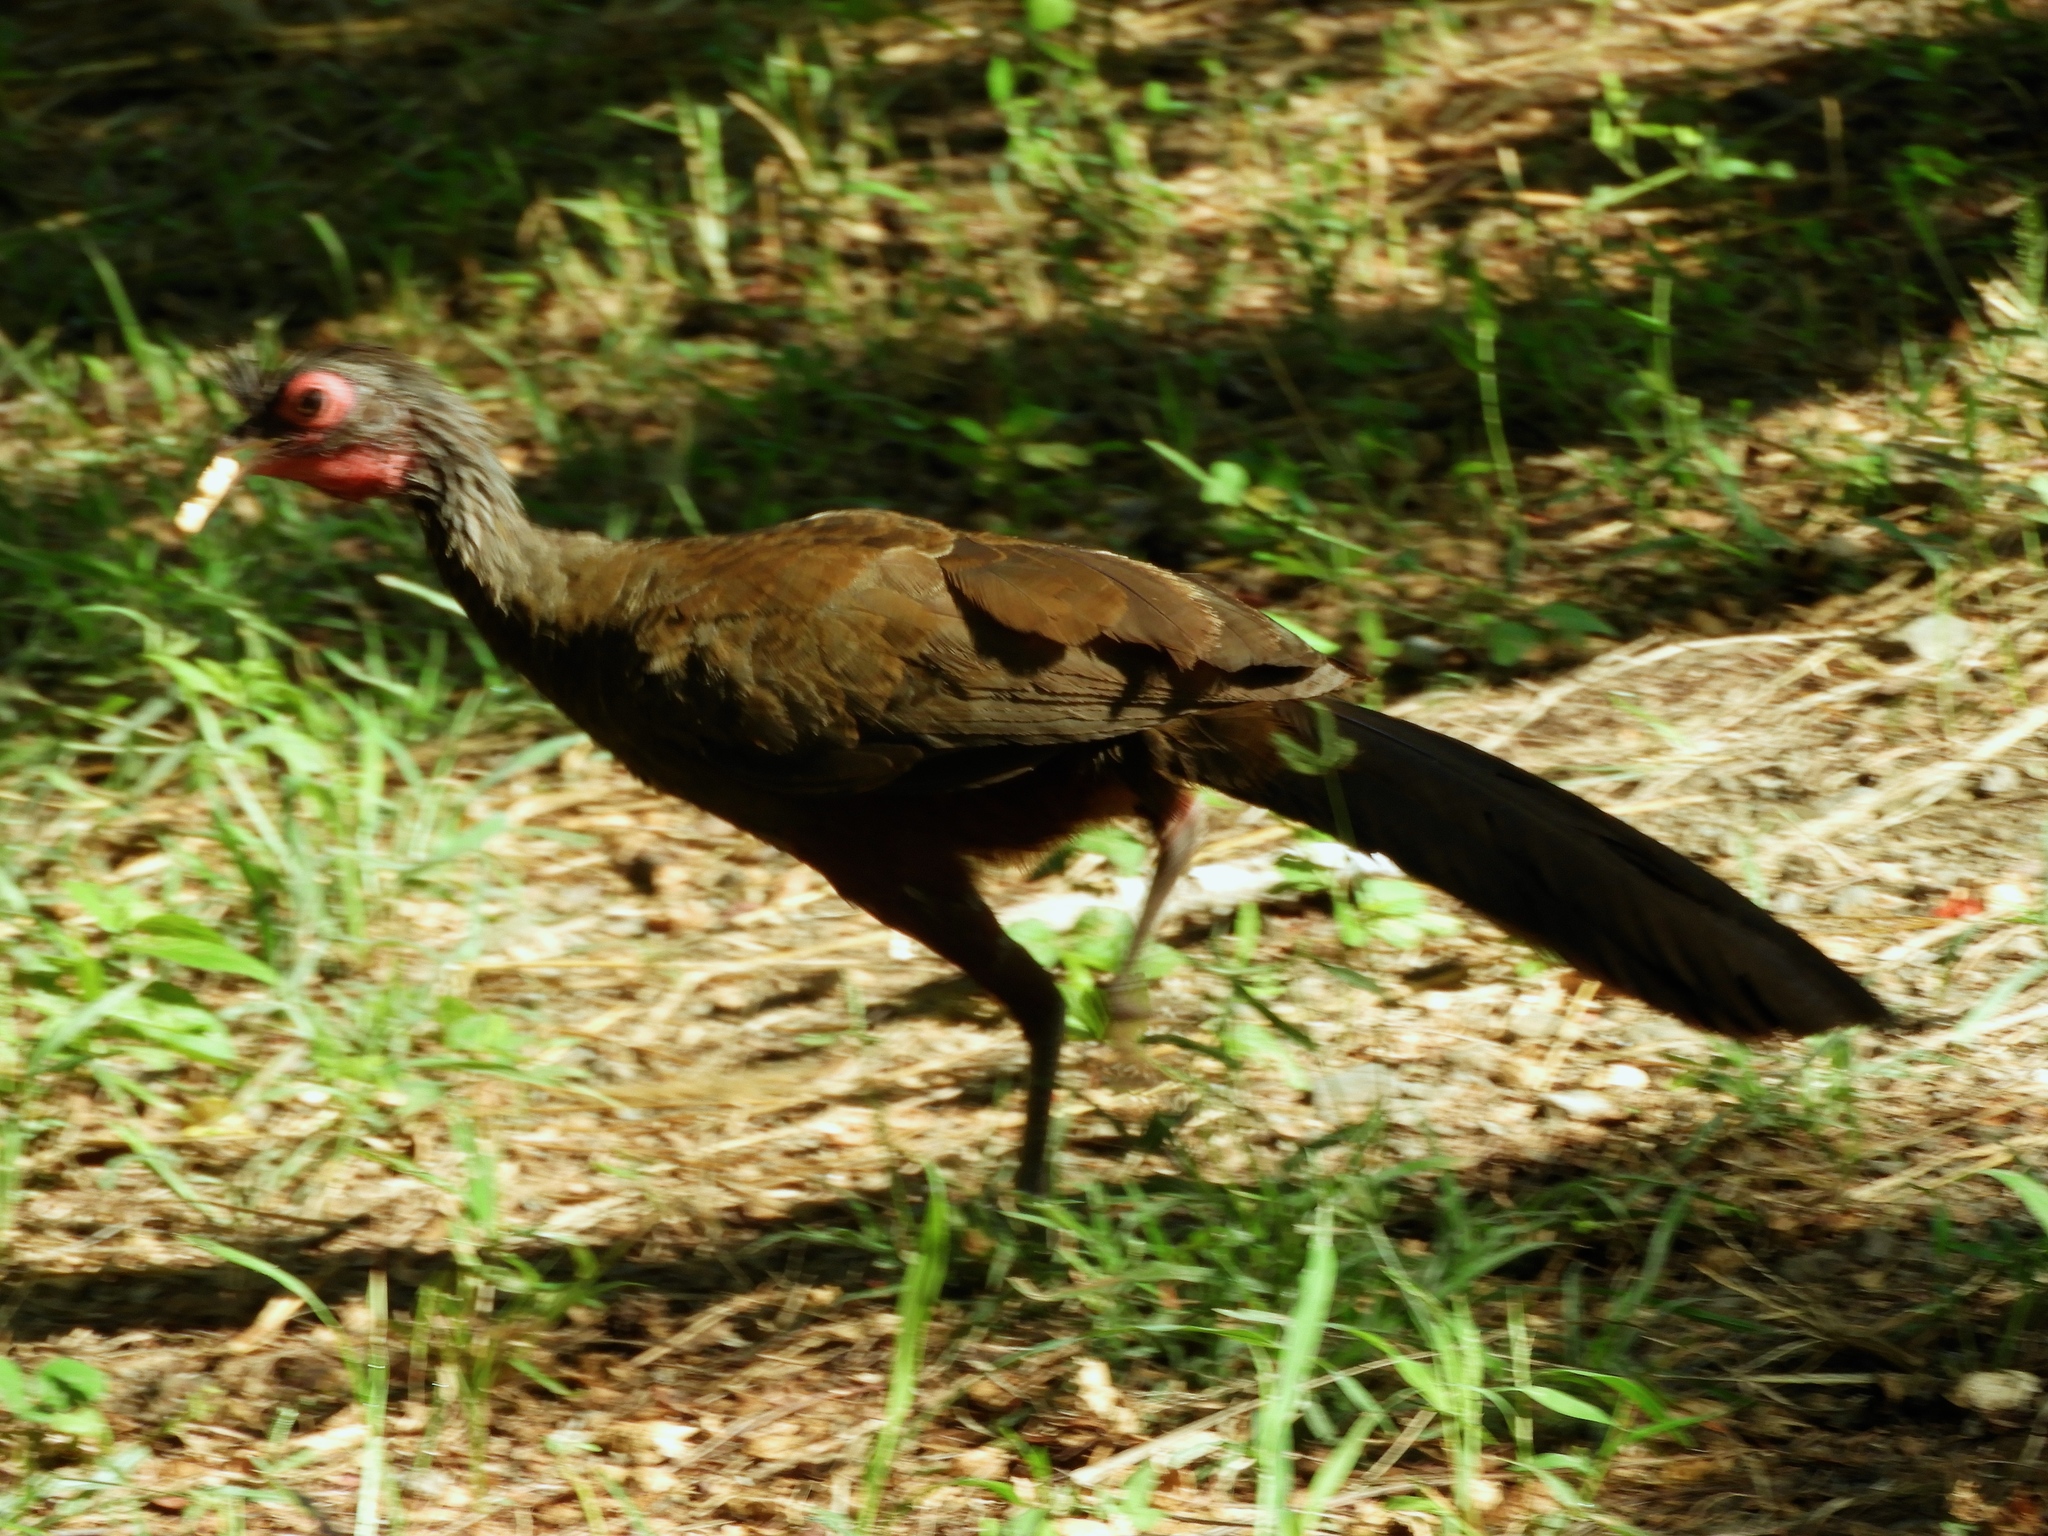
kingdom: Animalia
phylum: Chordata
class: Aves
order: Galliformes
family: Cracidae
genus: Ortalis
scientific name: Ortalis wagleri
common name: Rufous-bellied chachalaca
